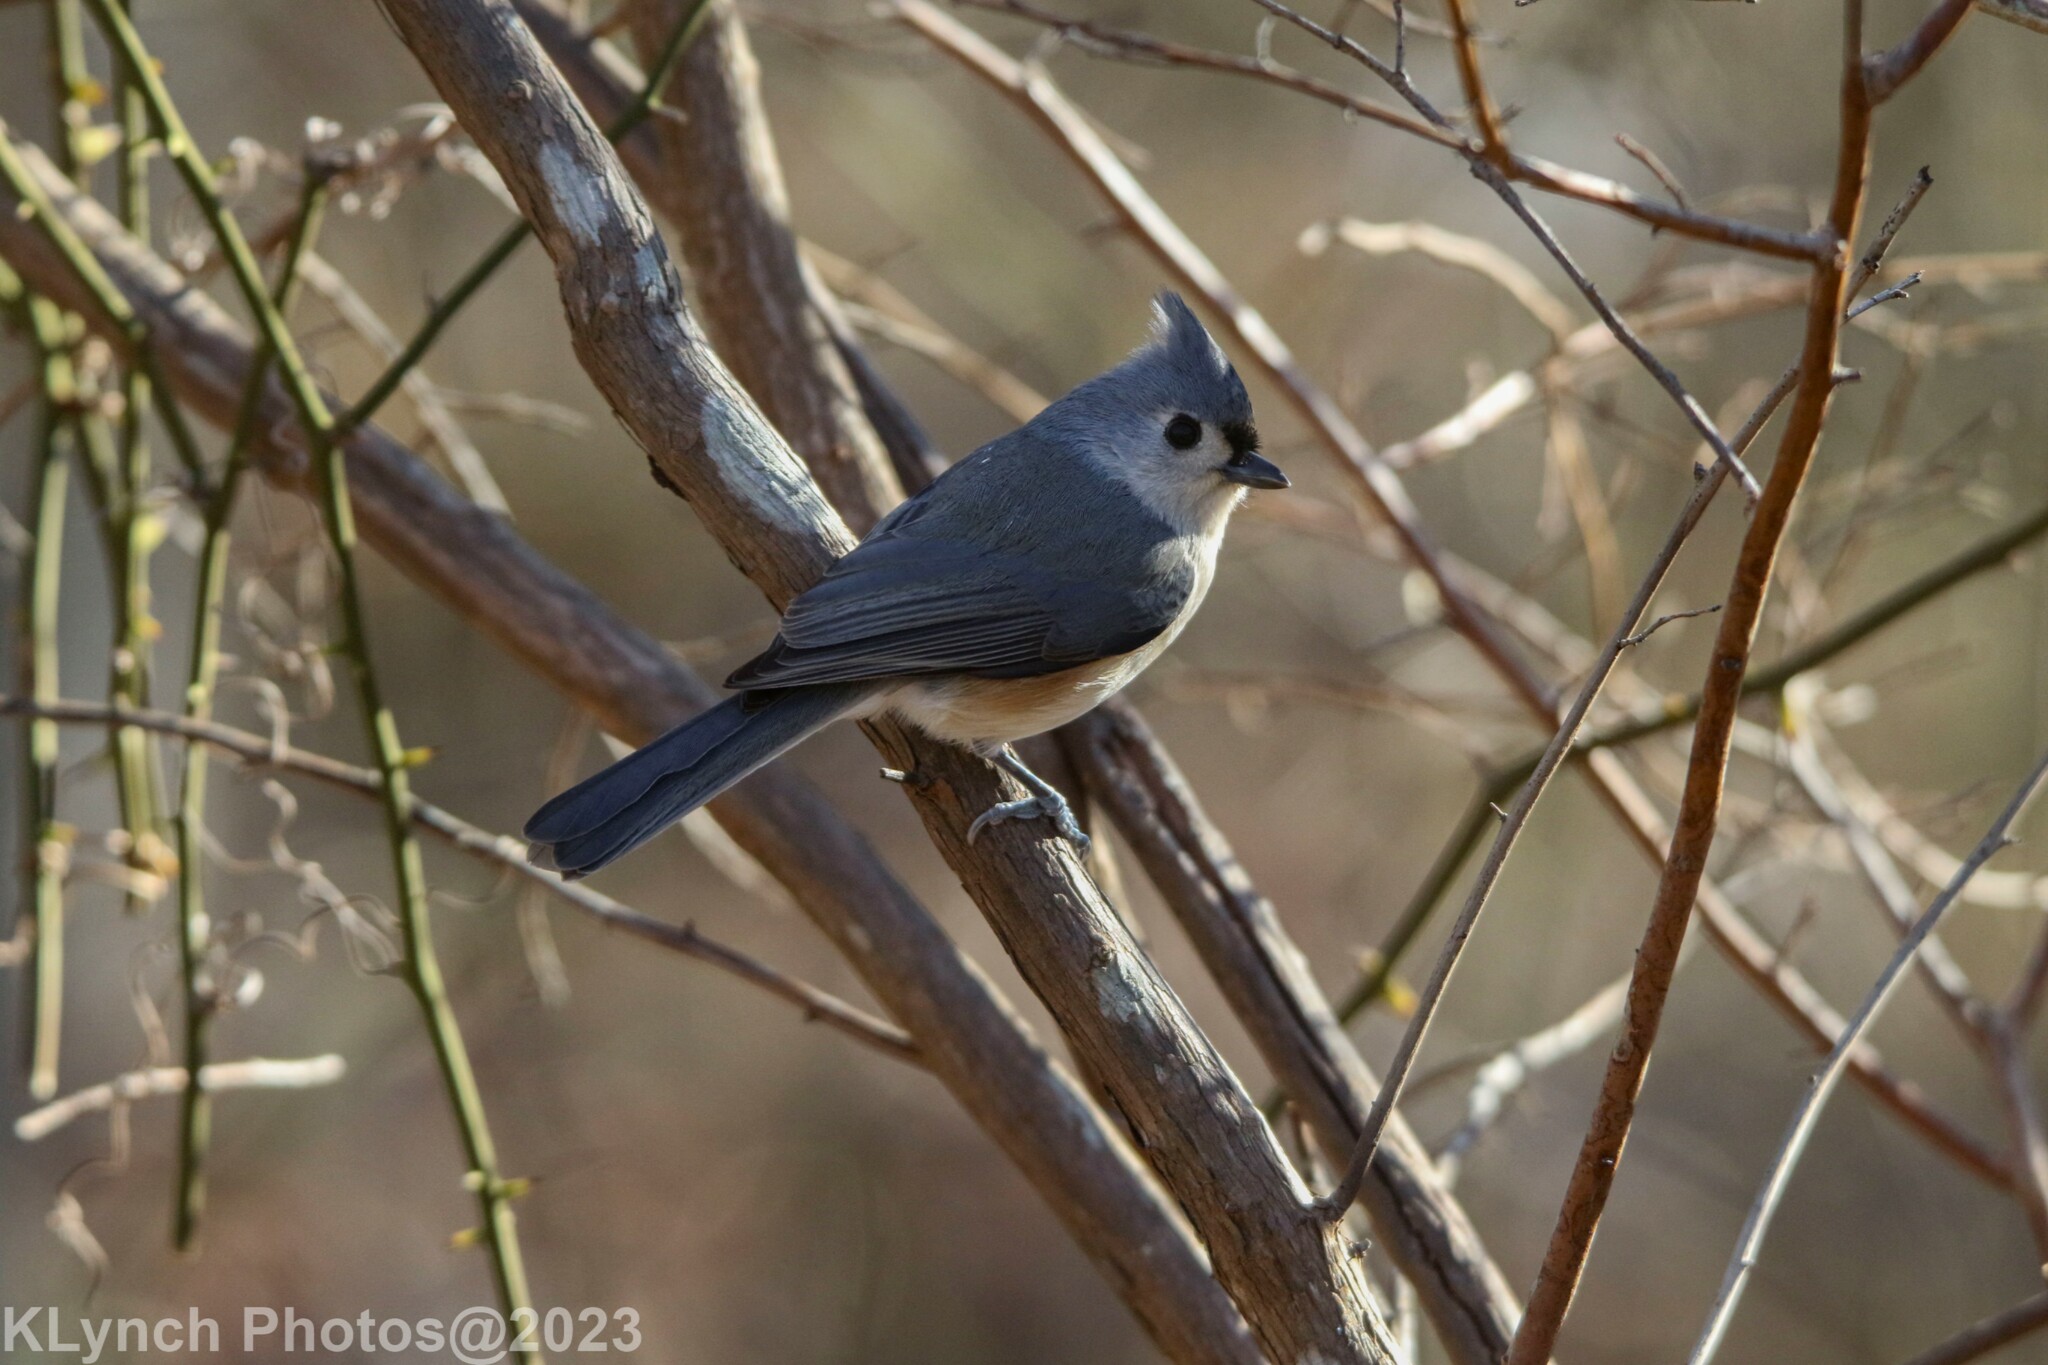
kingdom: Animalia
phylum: Chordata
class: Aves
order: Passeriformes
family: Paridae
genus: Baeolophus
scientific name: Baeolophus bicolor
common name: Tufted titmouse
